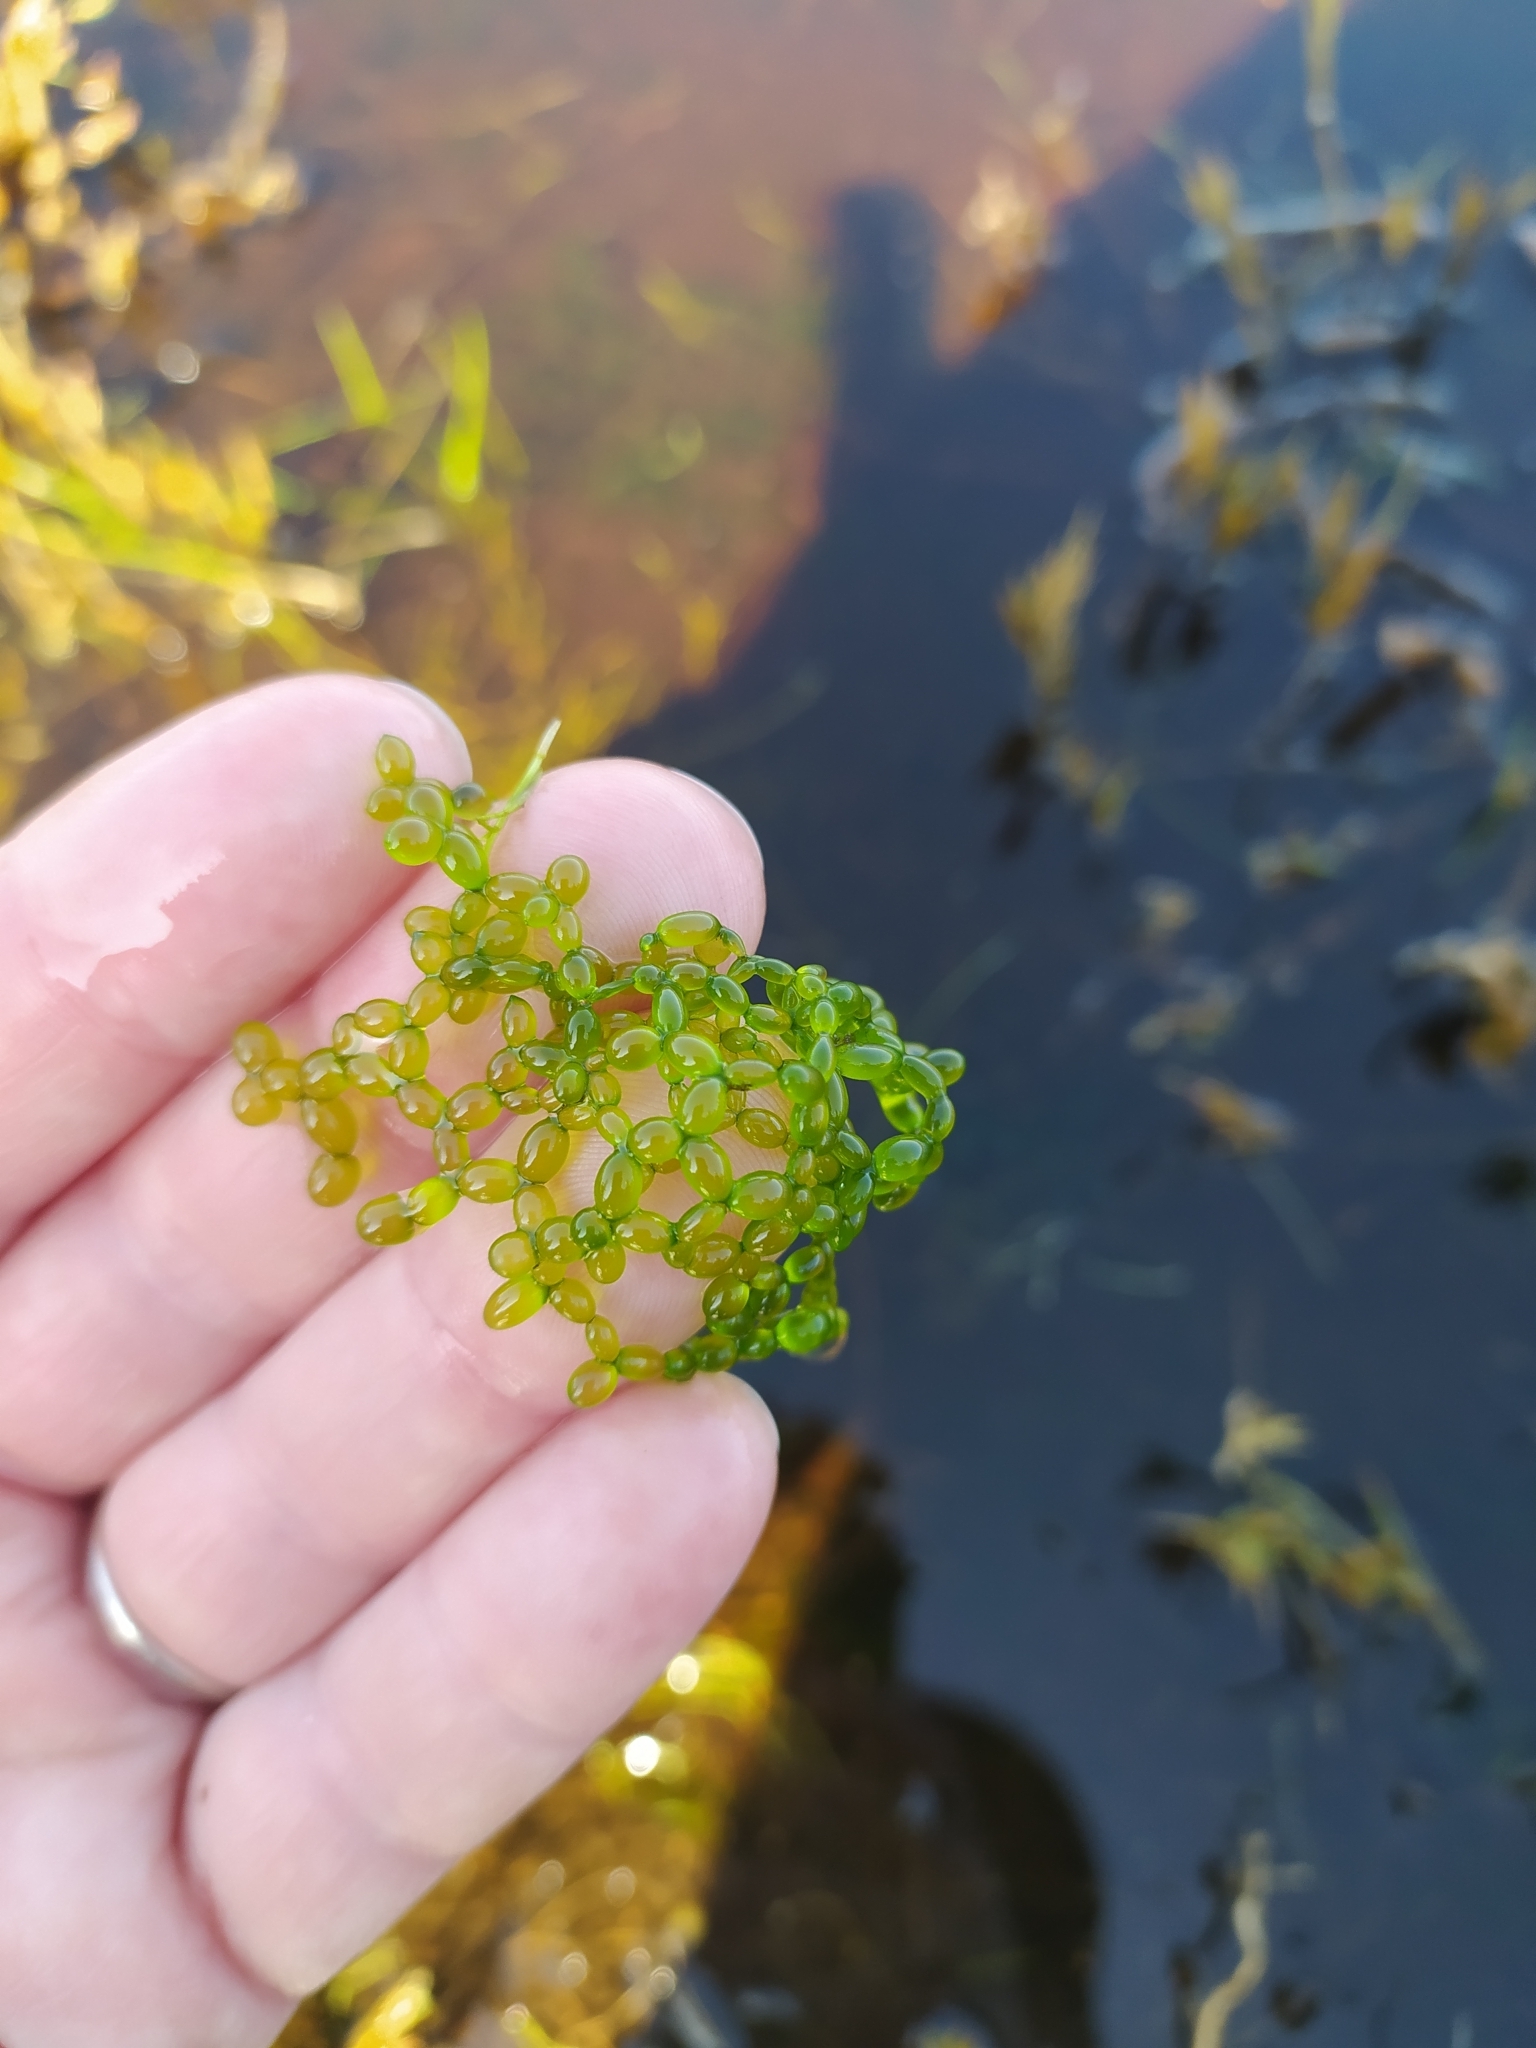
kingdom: Plantae
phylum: Chlorophyta
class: Chlorophyceae
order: Sphaeropleales
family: Hydrodictyaceae
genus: Hydrodictyon
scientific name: Hydrodictyon
